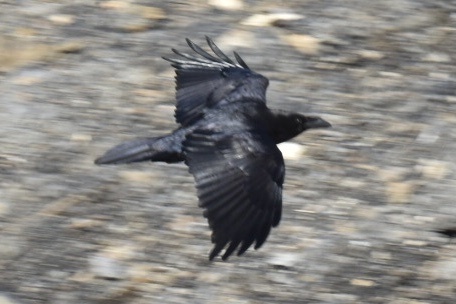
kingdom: Animalia
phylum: Chordata
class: Aves
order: Passeriformes
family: Corvidae
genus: Corvus
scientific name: Corvus corax
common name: Common raven
